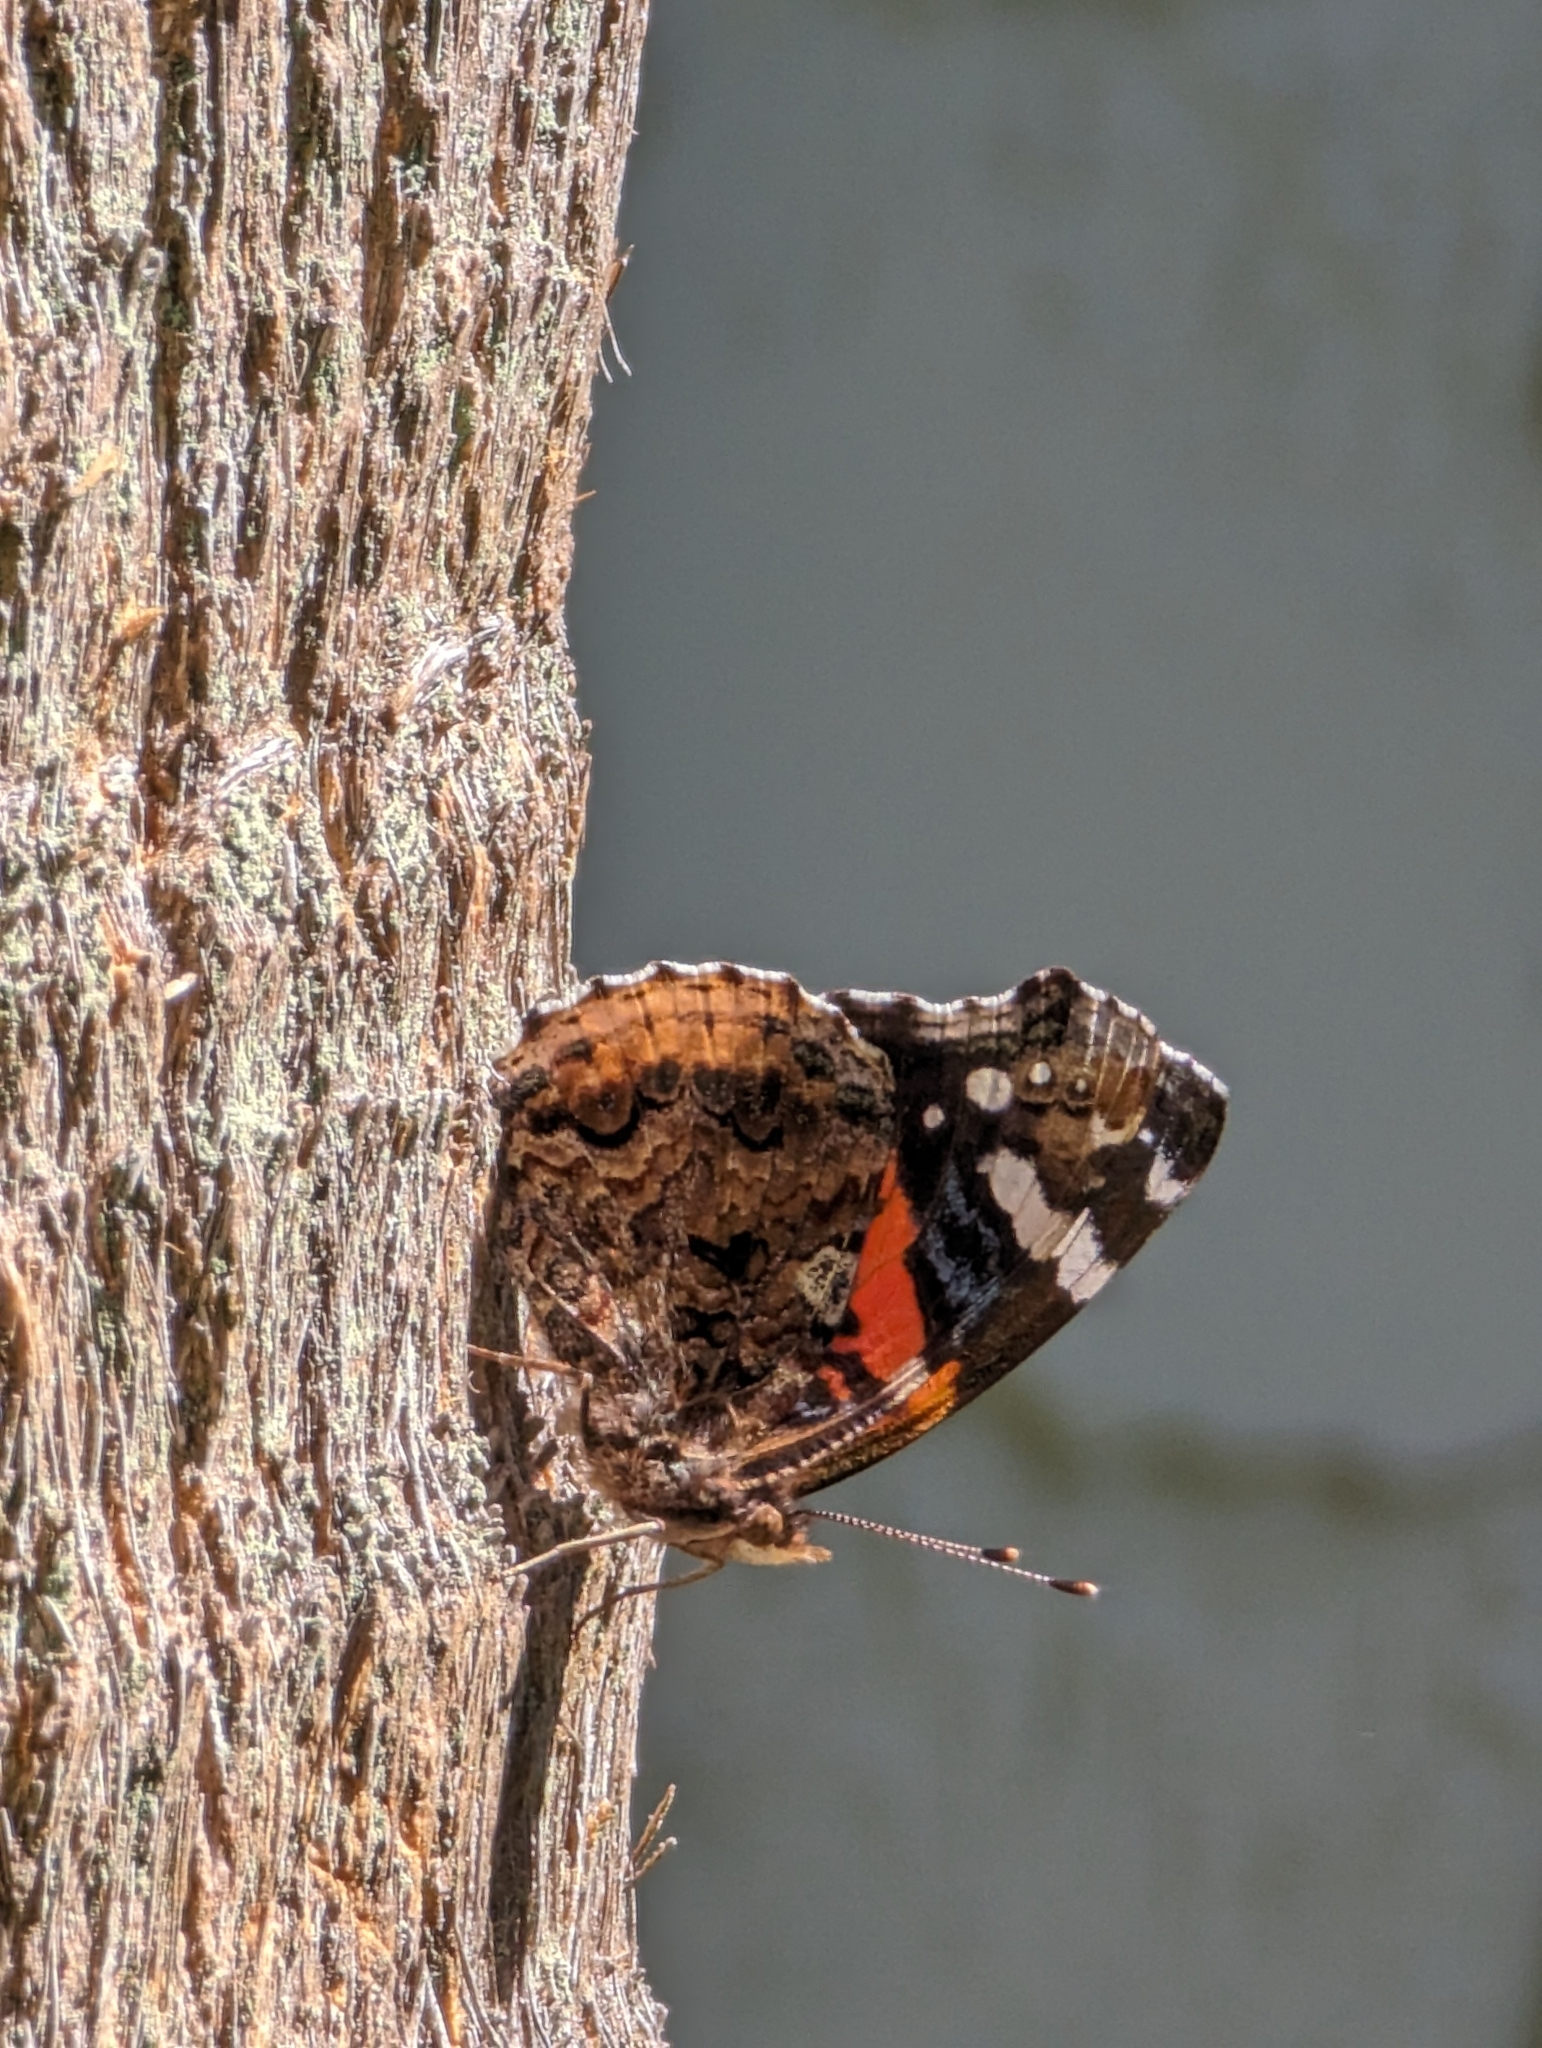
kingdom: Animalia
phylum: Arthropoda
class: Insecta
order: Lepidoptera
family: Nymphalidae
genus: Vanessa
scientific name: Vanessa atalanta
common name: Red admiral
